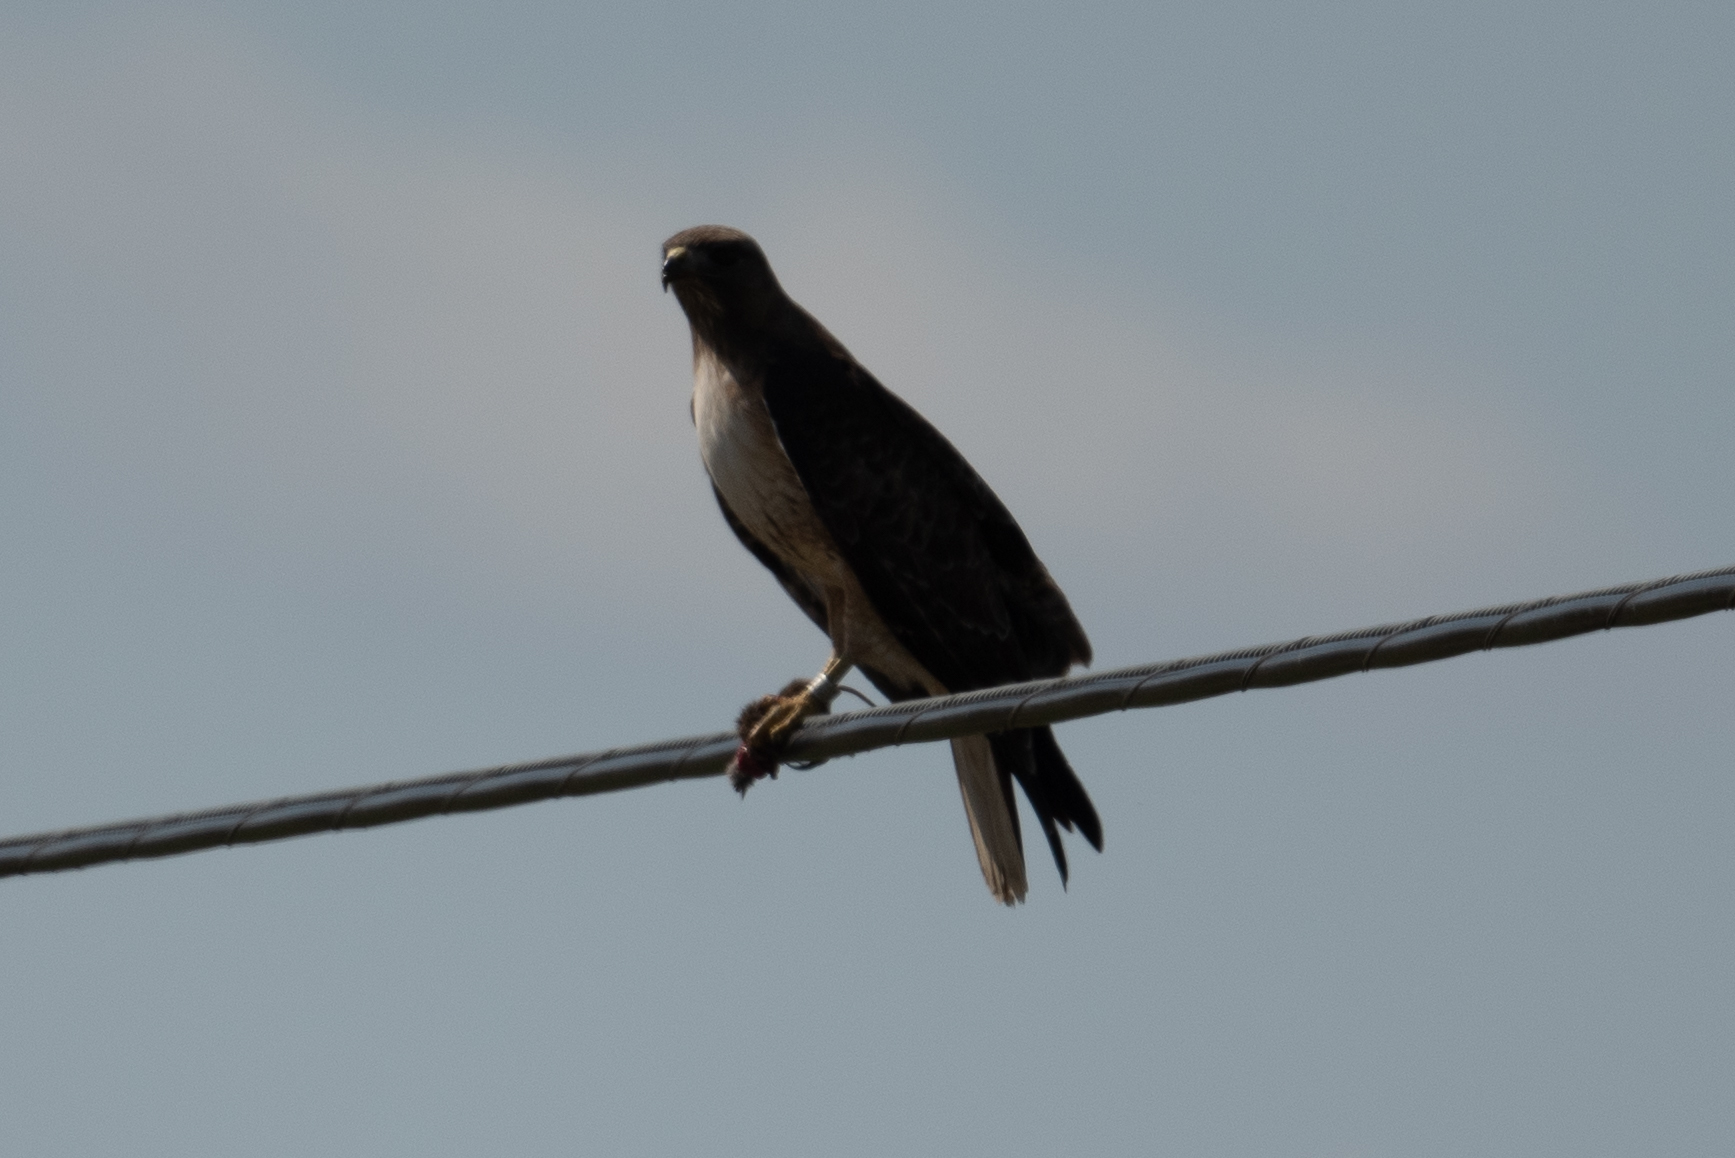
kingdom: Animalia
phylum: Chordata
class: Aves
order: Accipitriformes
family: Accipitridae
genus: Buteo
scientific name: Buteo jamaicensis
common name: Red-tailed hawk
